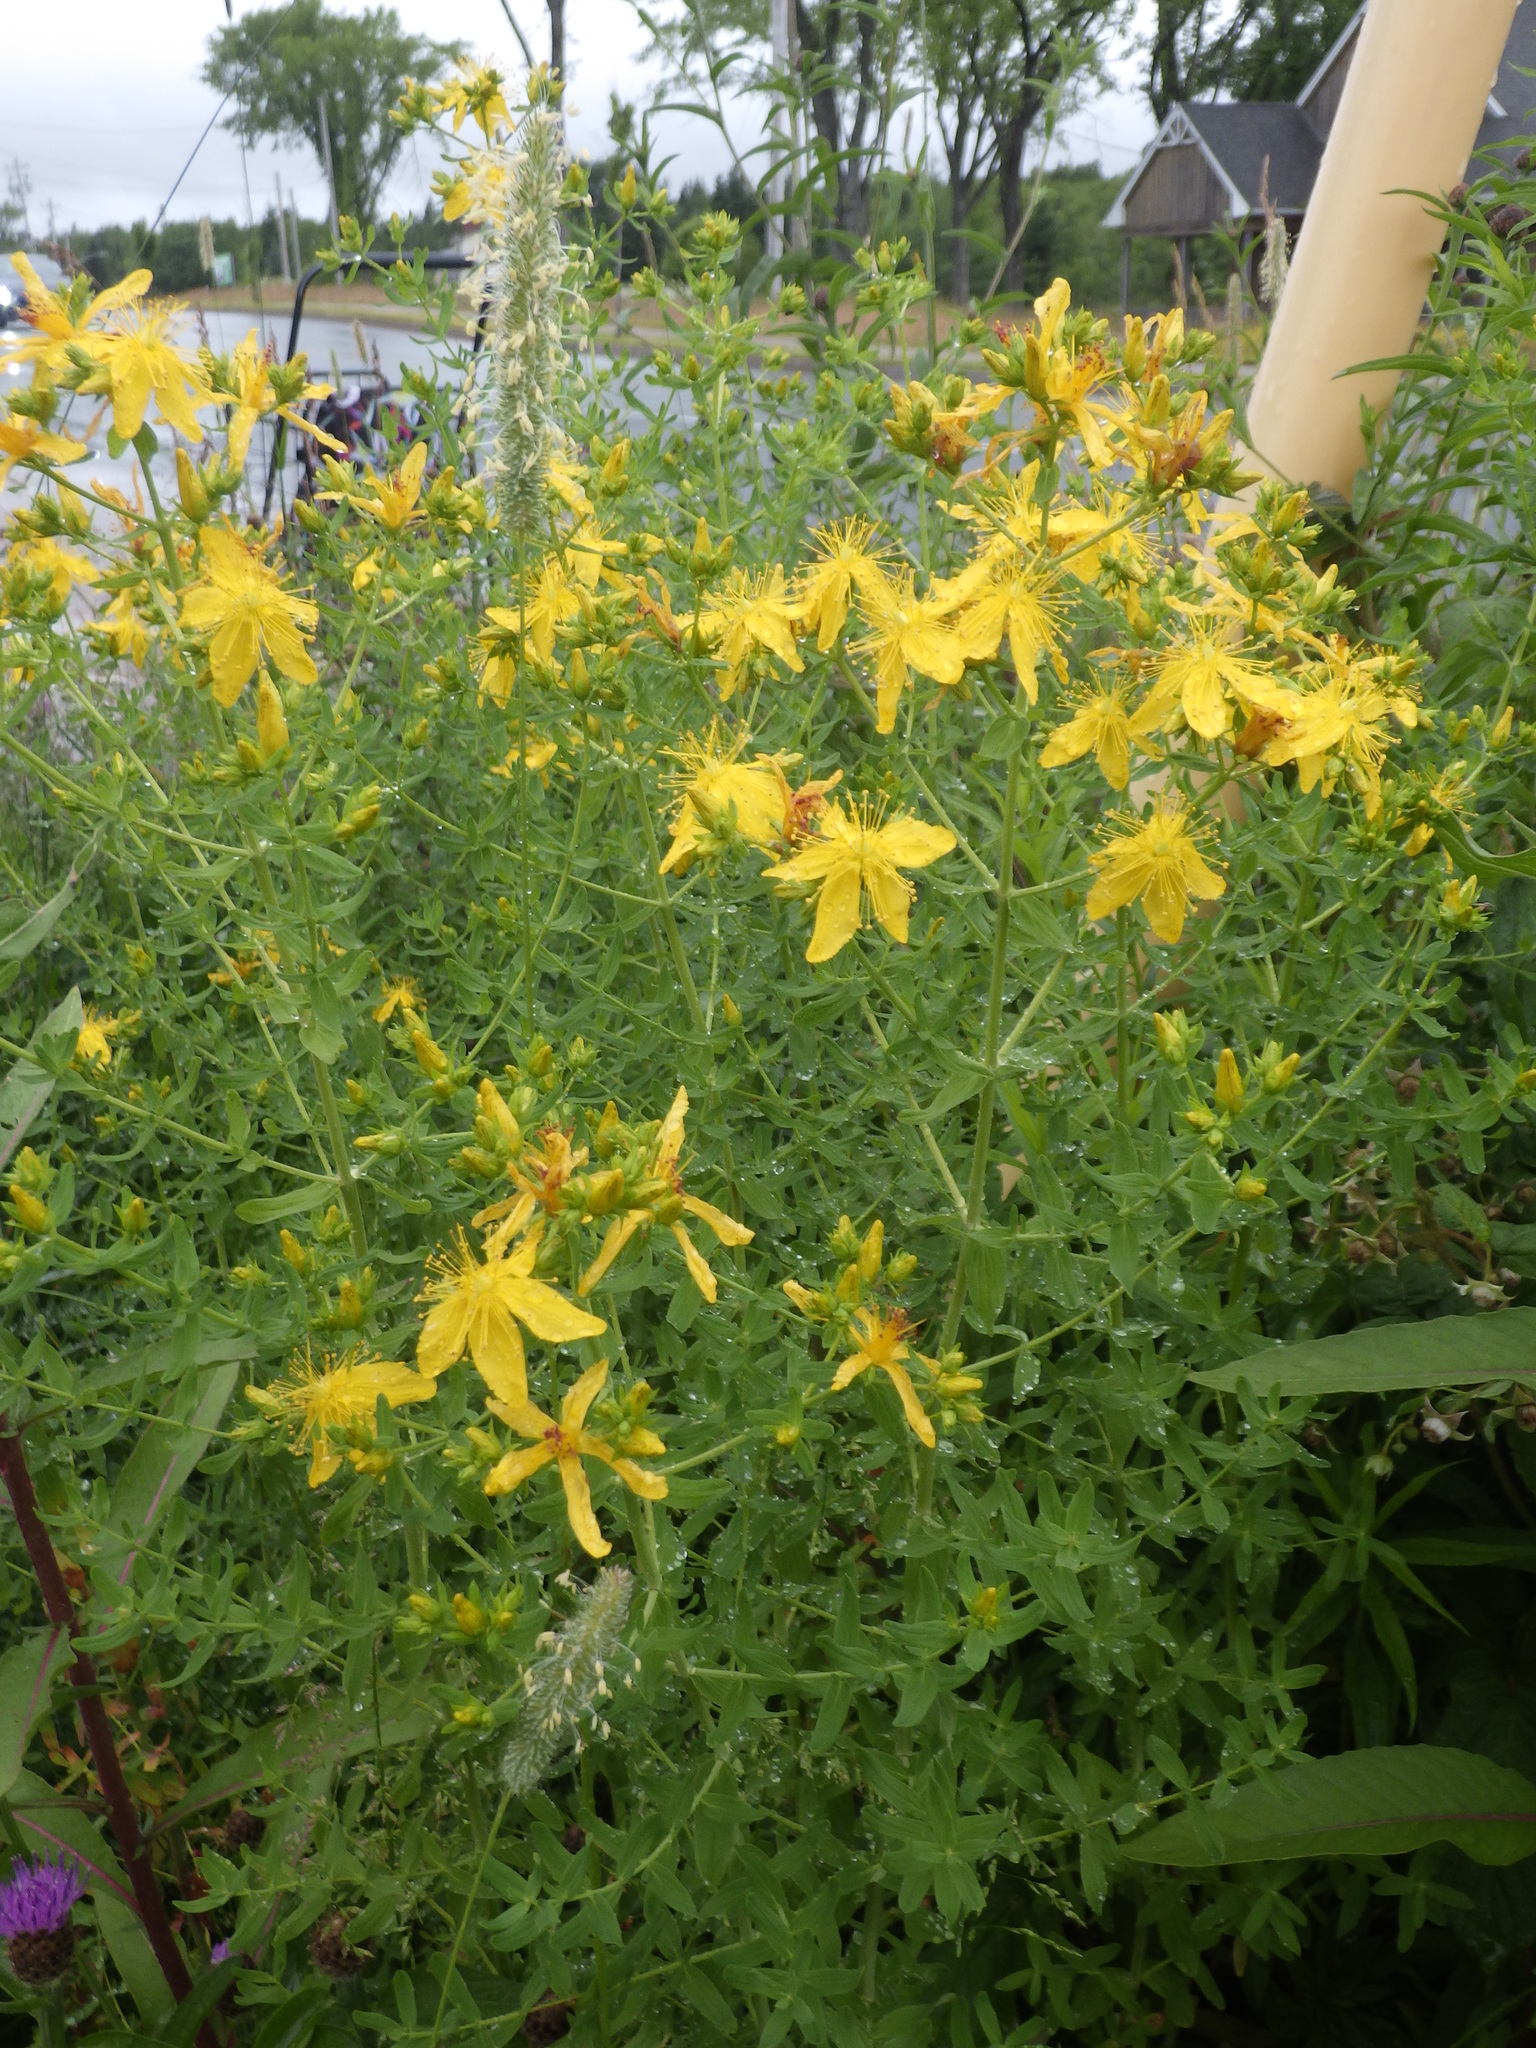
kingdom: Plantae
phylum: Tracheophyta
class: Magnoliopsida
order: Malpighiales
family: Hypericaceae
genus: Hypericum
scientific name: Hypericum perforatum
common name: Common st. johnswort
